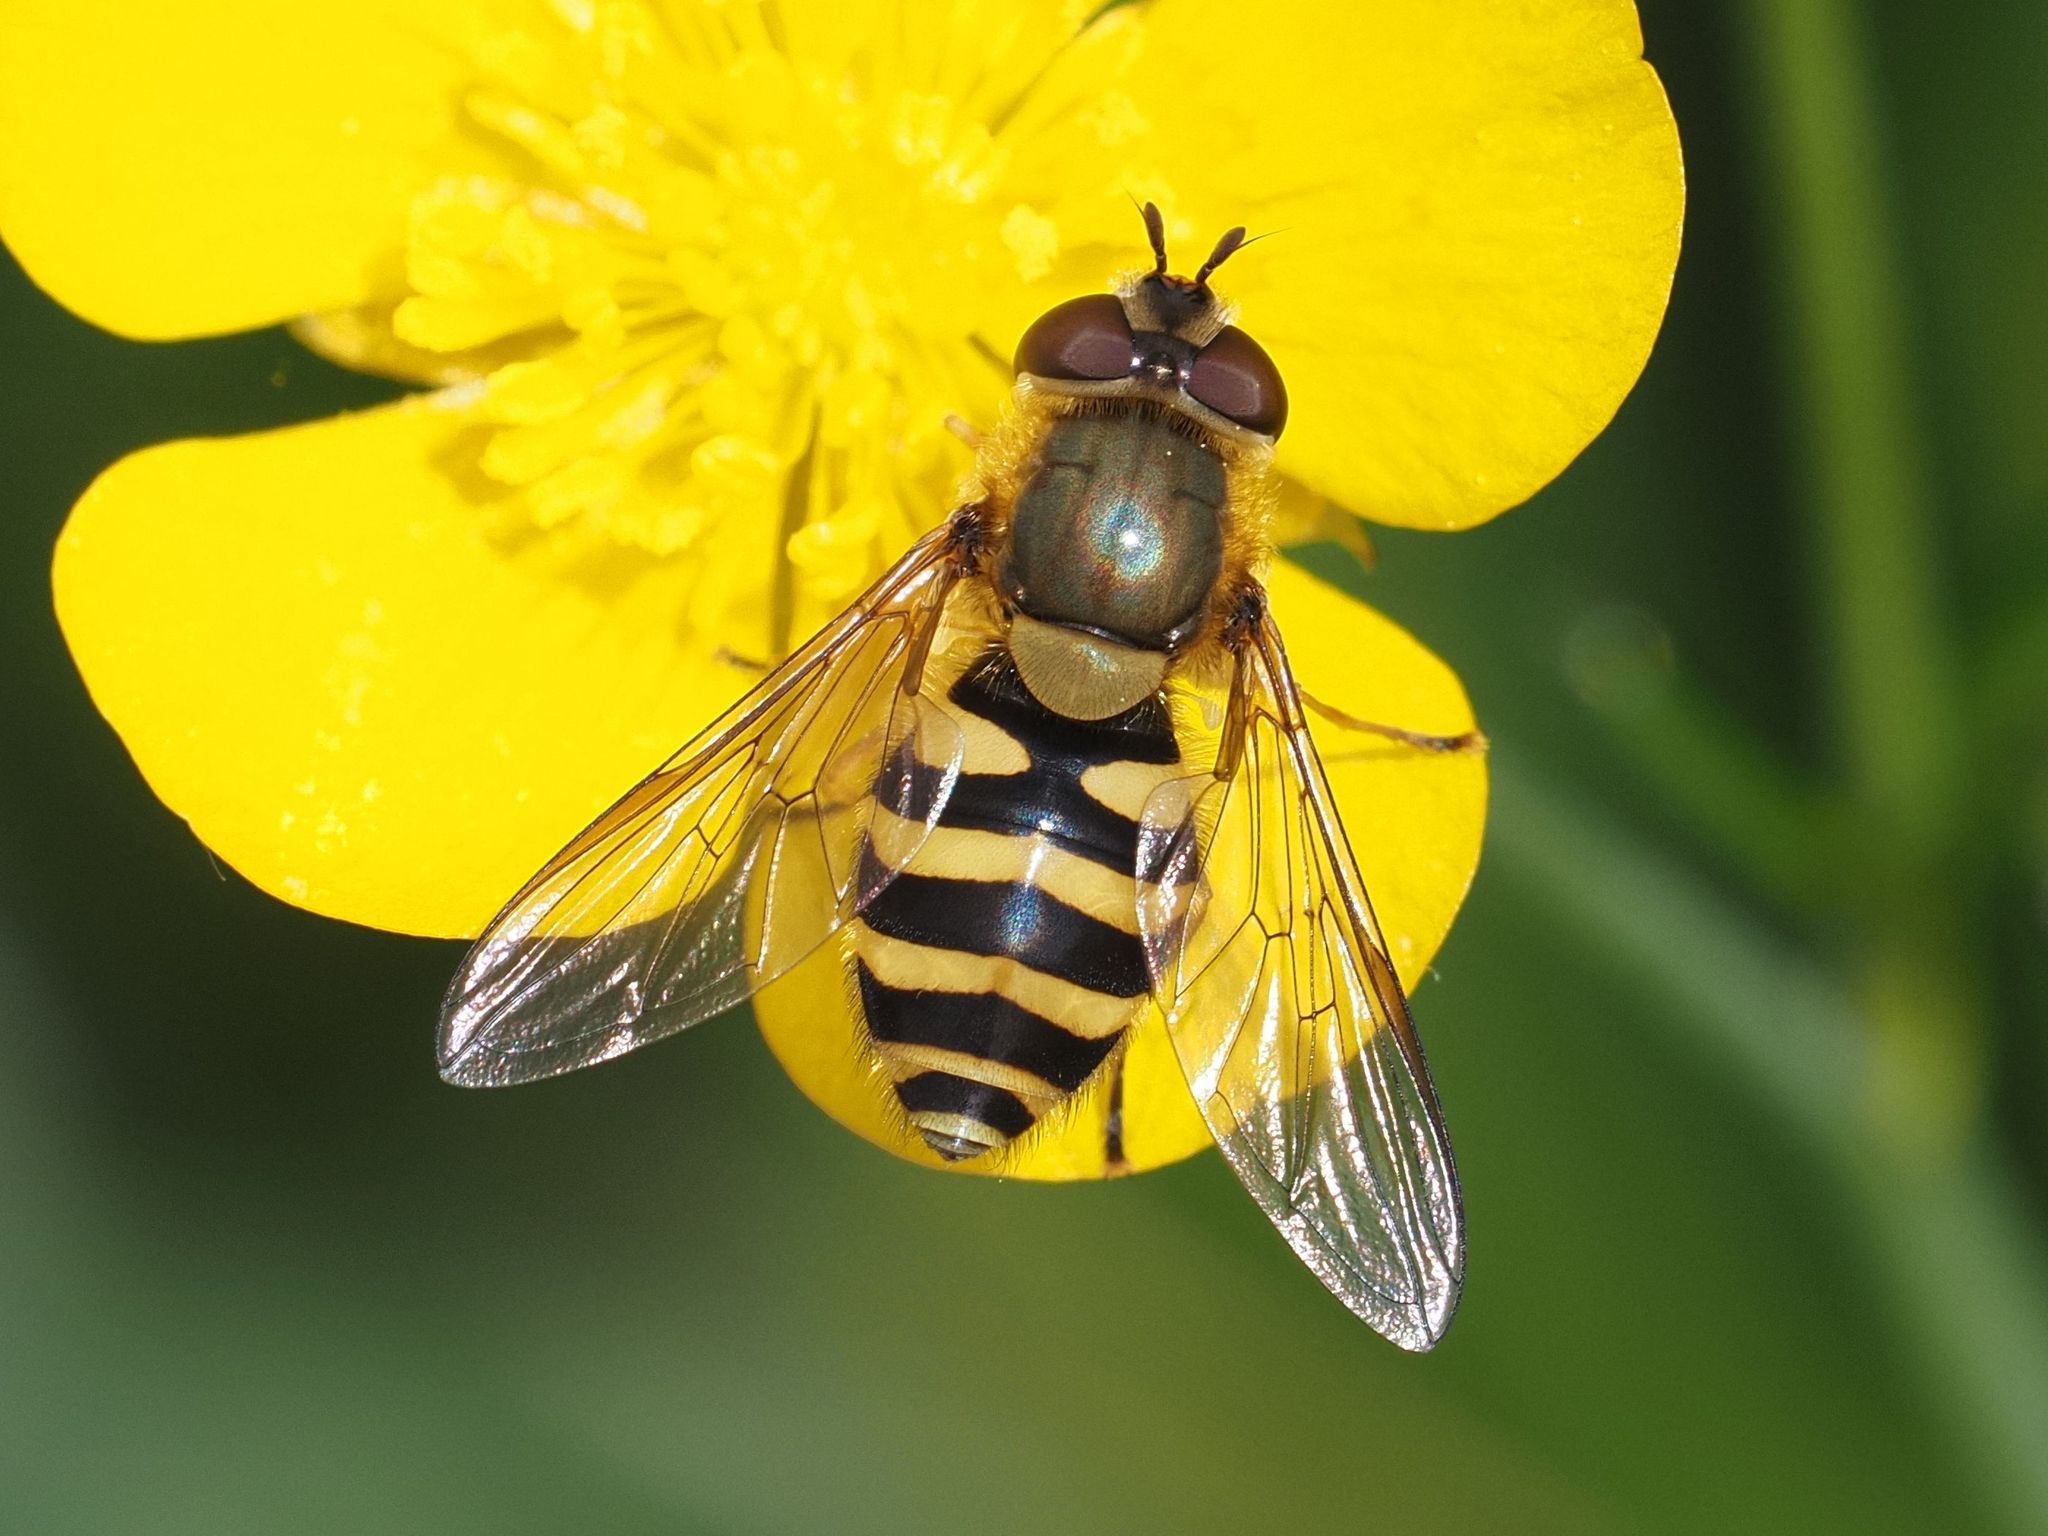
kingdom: Animalia
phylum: Arthropoda
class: Insecta
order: Diptera
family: Syrphidae
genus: Syrphus
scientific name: Syrphus ribesii
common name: Common flower fly
